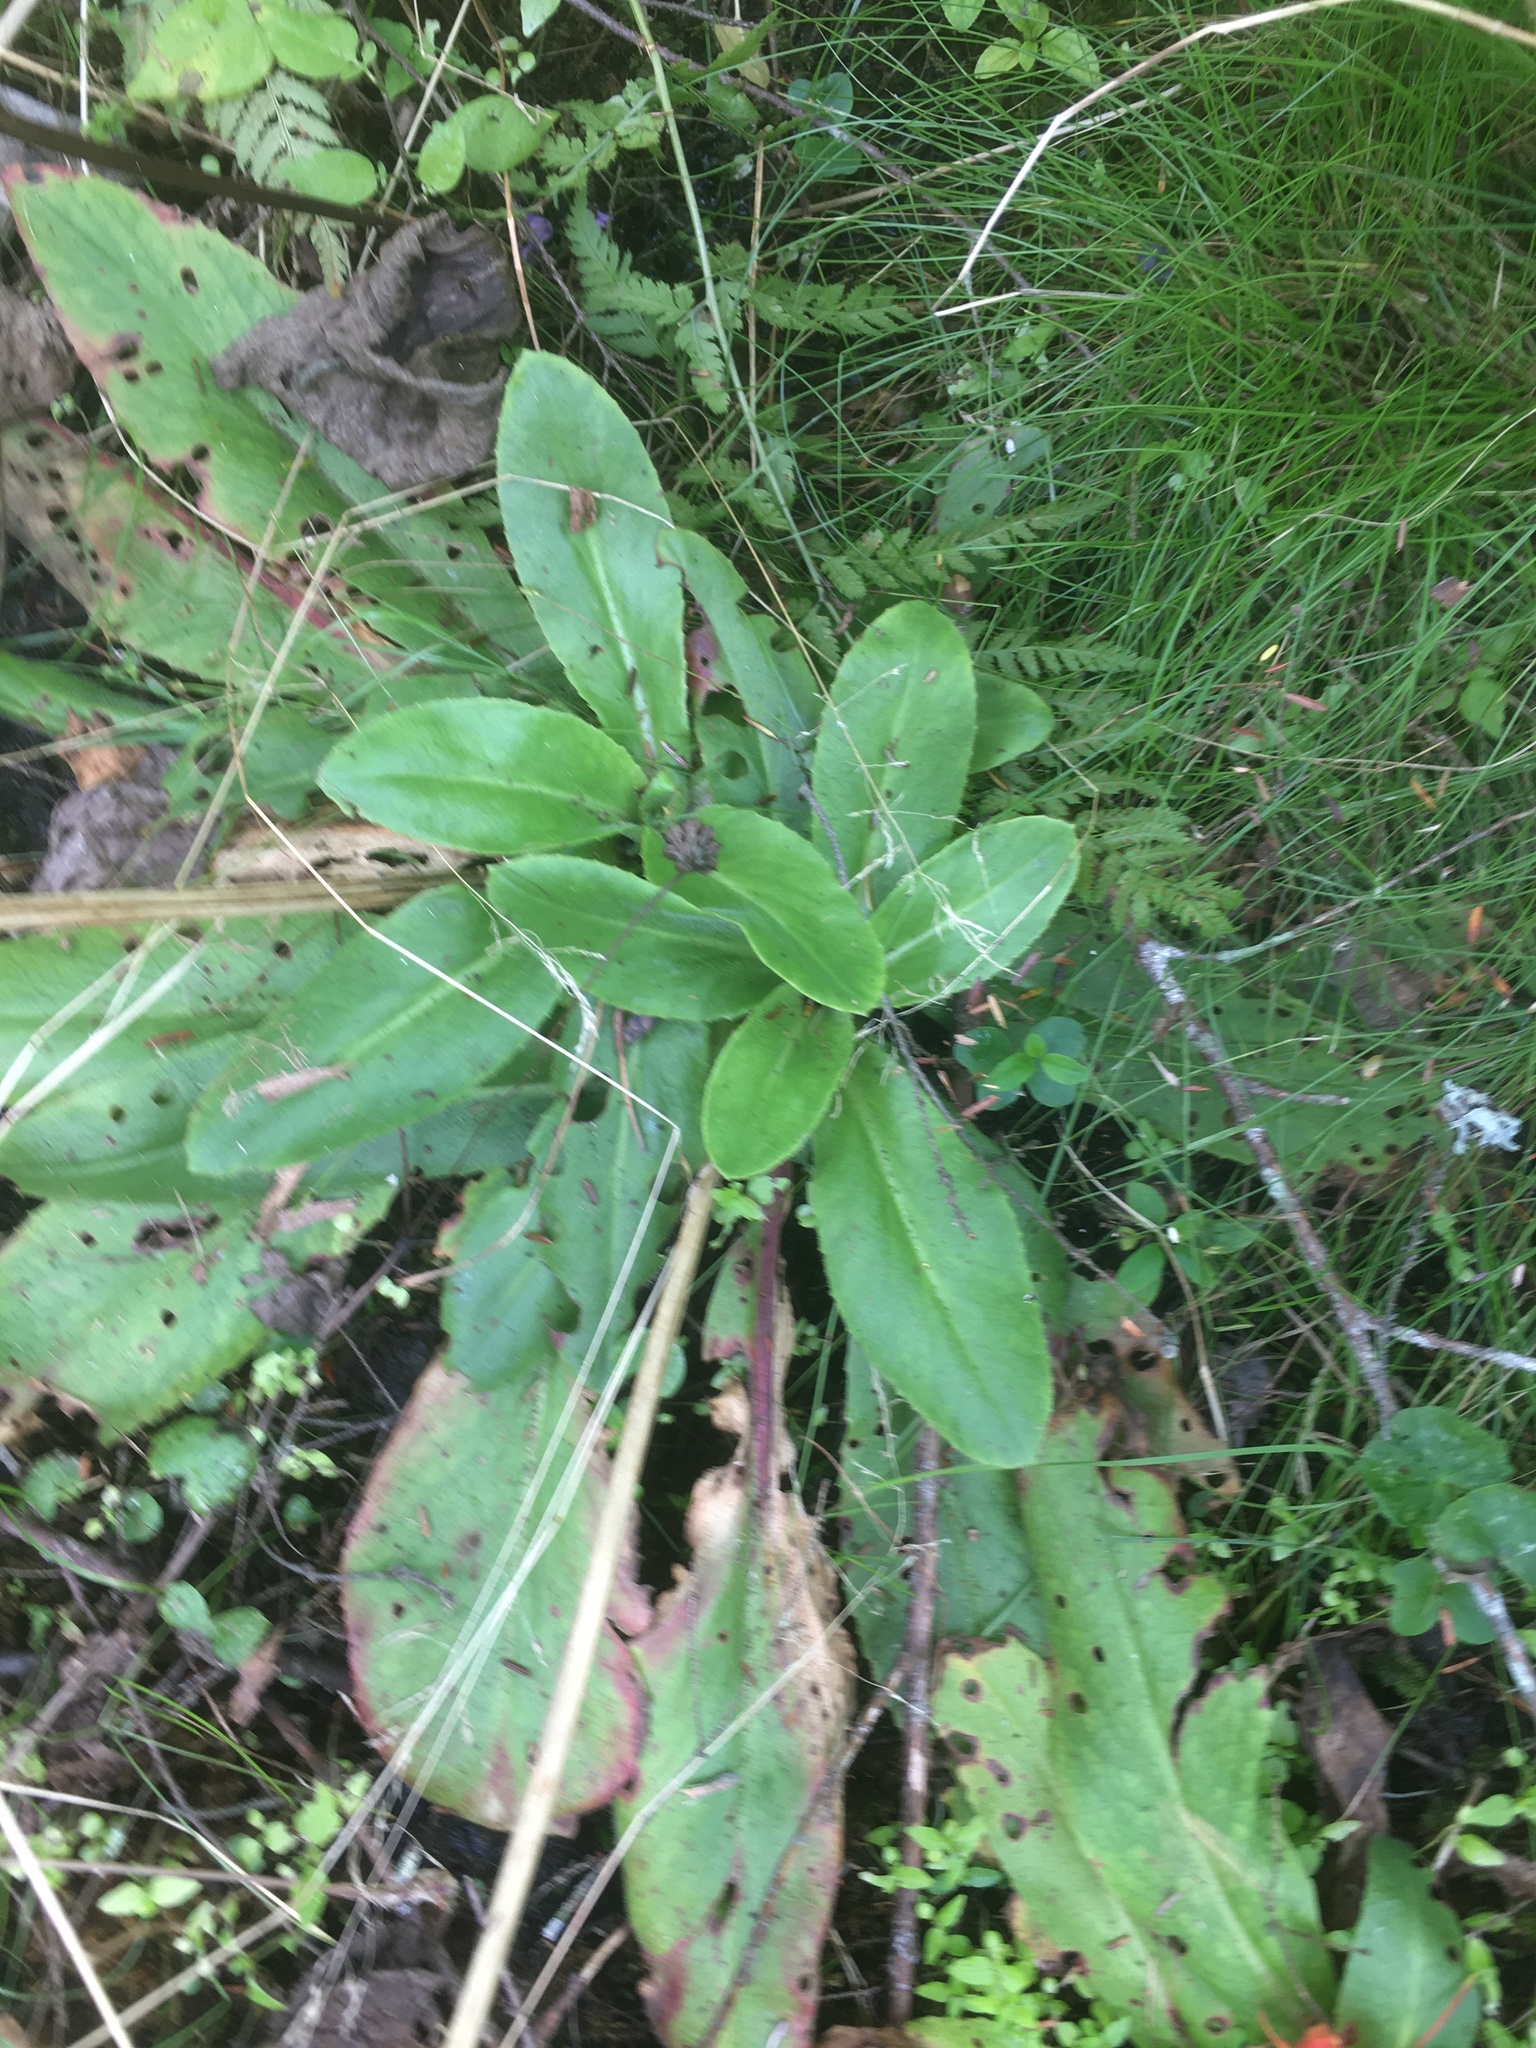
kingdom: Plantae
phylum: Tracheophyta
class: Magnoliopsida
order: Saxifragales
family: Saxifragaceae
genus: Micranthes
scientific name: Micranthes pensylvanica
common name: Marsh saxifrage
